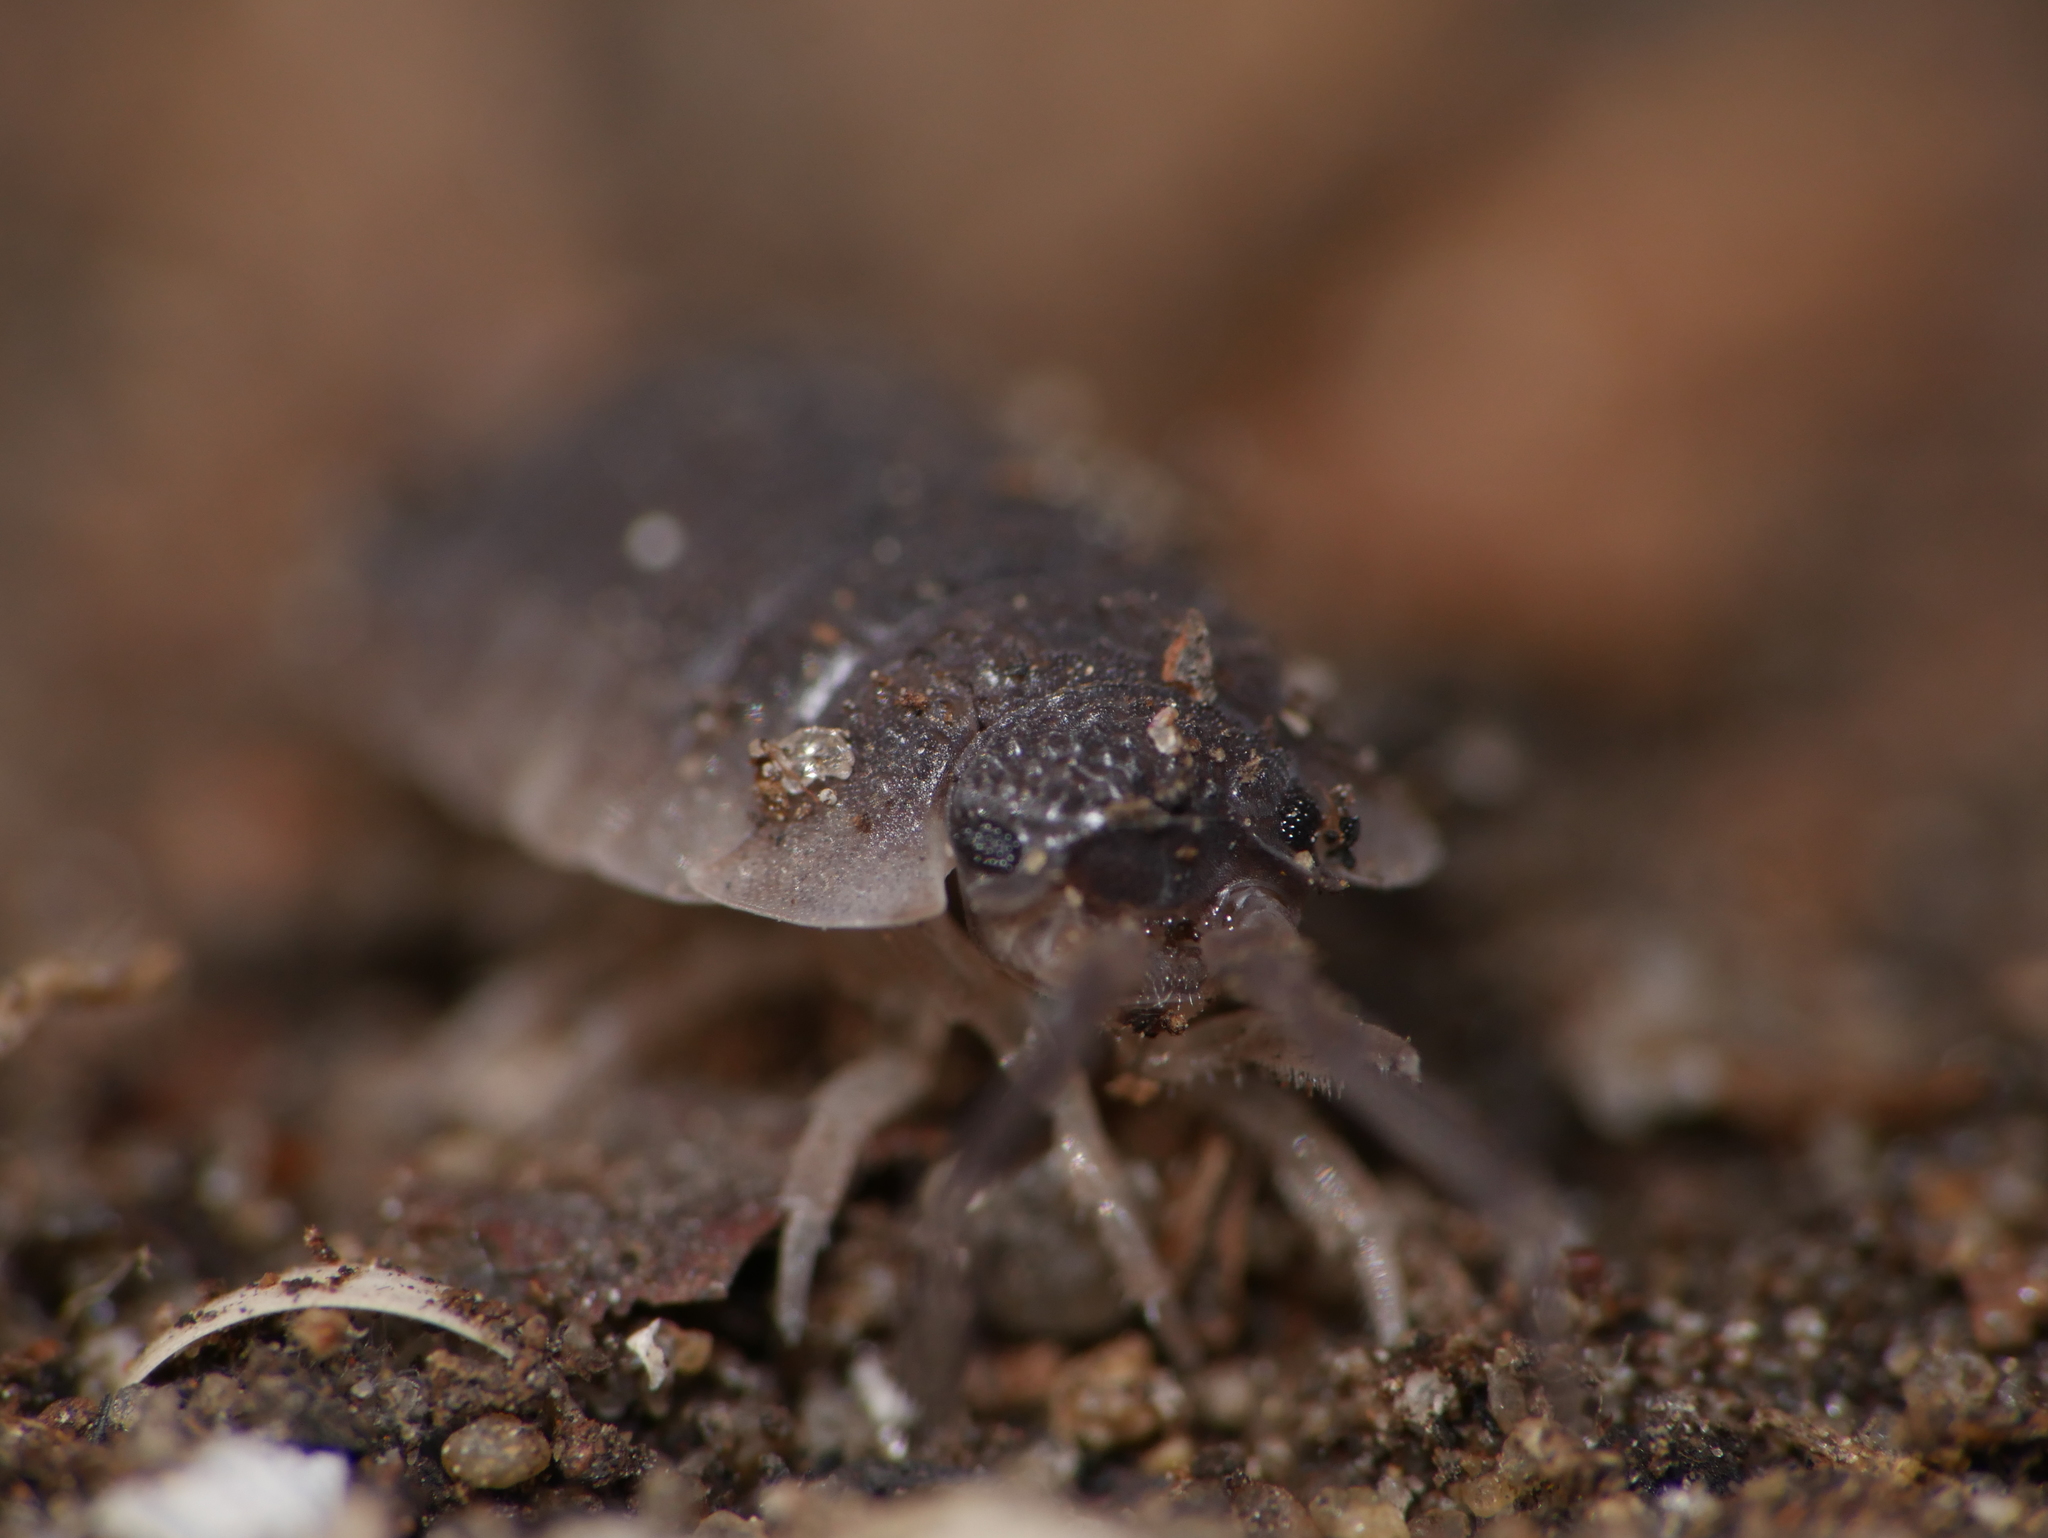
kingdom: Animalia
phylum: Arthropoda
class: Malacostraca
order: Isopoda
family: Porcellionidae
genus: Porcellio
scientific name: Porcellio scaber
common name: Common rough woodlouse
